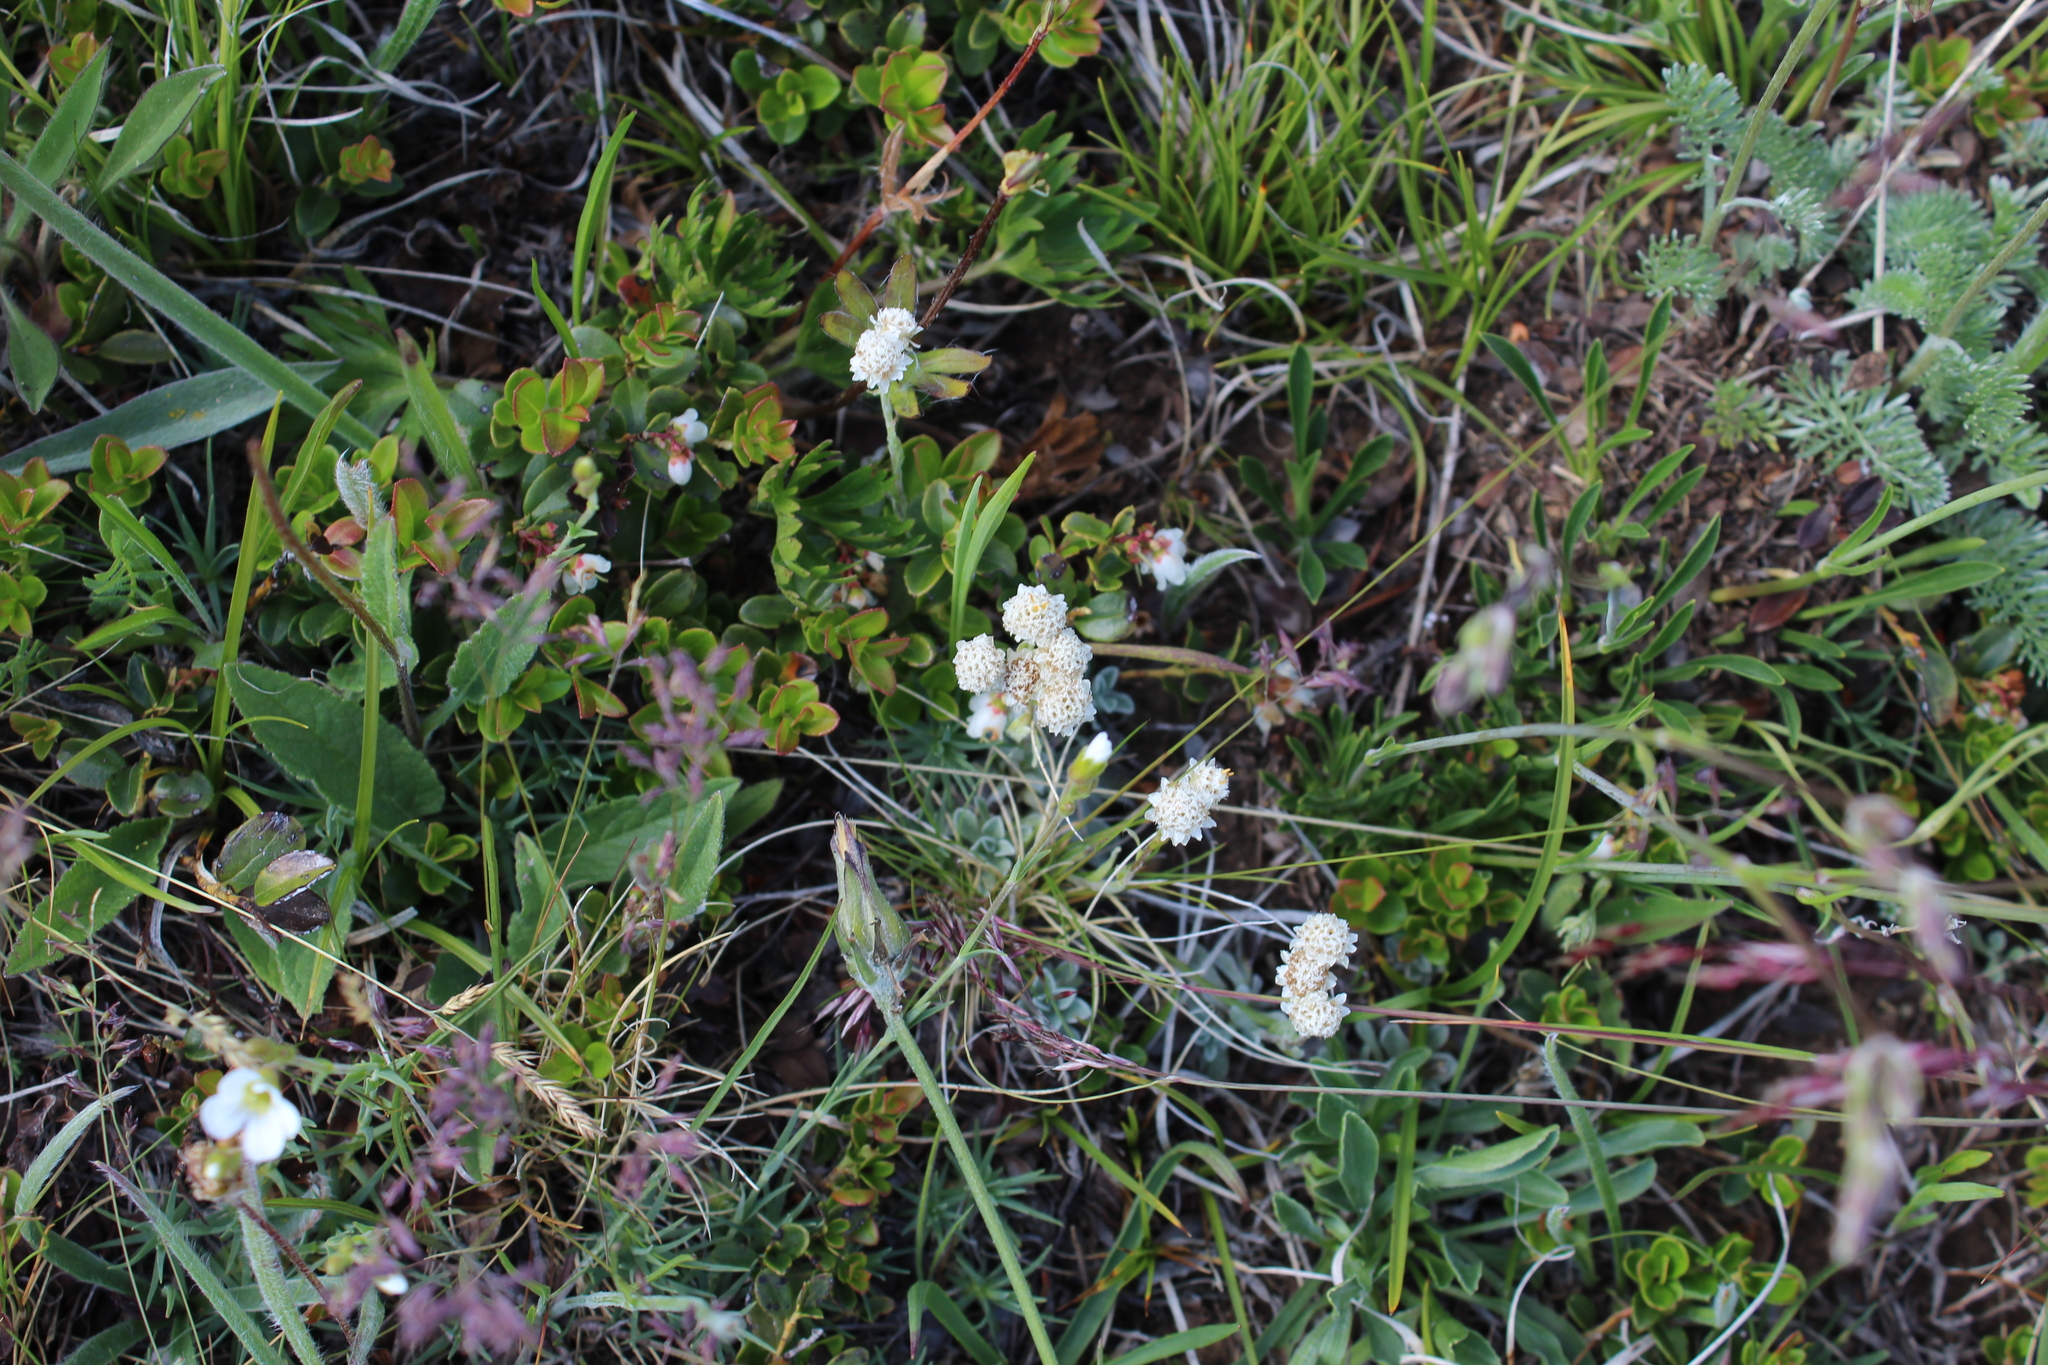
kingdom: Plantae
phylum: Tracheophyta
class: Magnoliopsida
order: Asterales
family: Asteraceae
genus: Antennaria
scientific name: Antennaria caucasica
